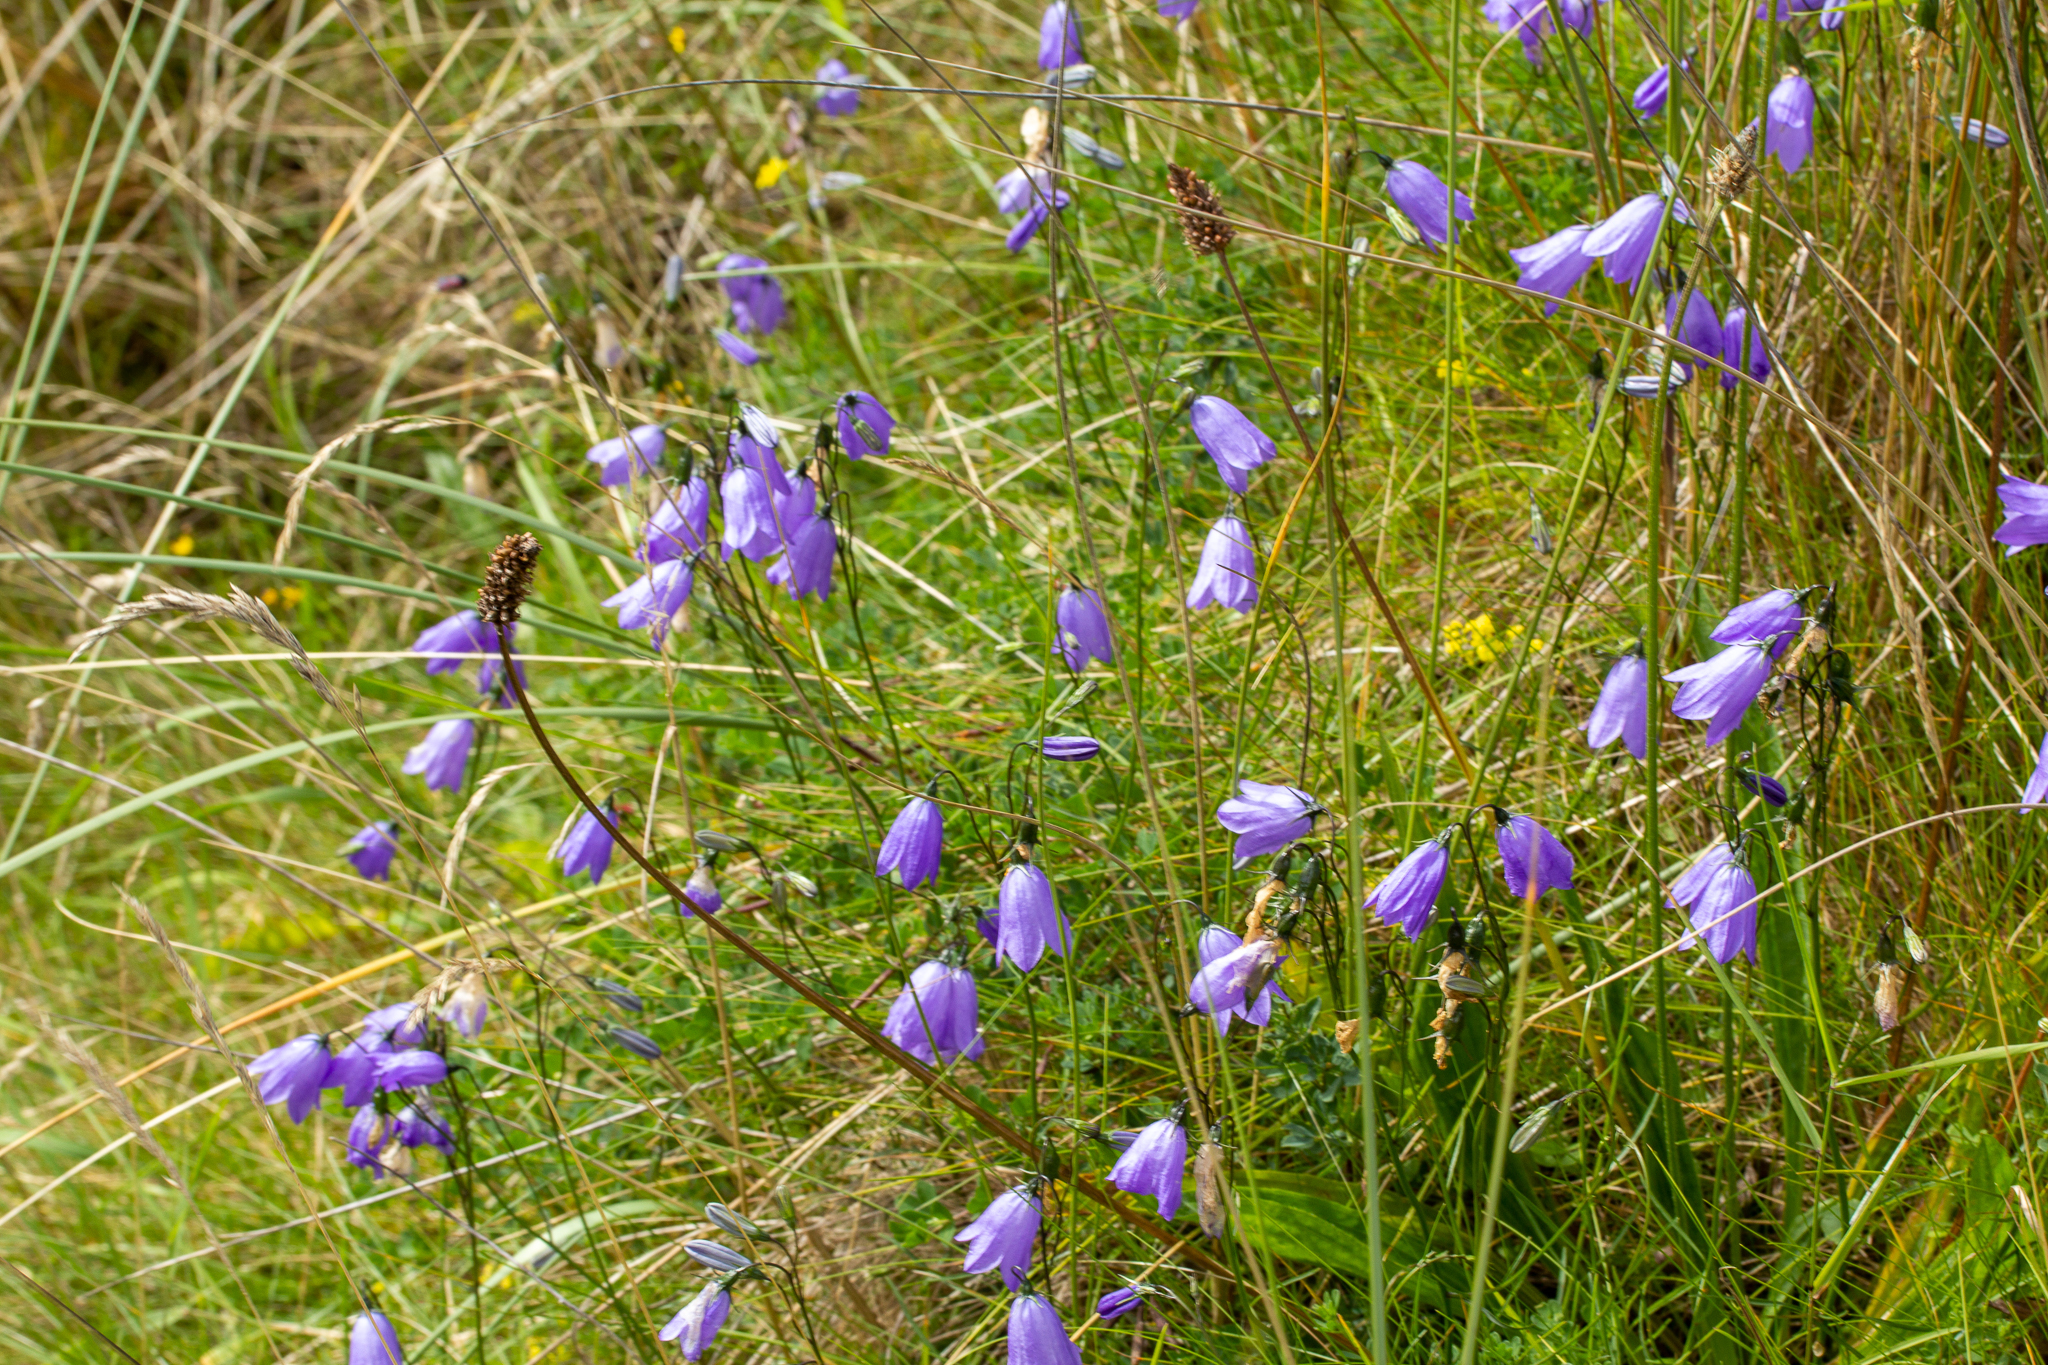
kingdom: Plantae
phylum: Tracheophyta
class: Magnoliopsida
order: Asterales
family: Campanulaceae
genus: Campanula
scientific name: Campanula rotundifolia
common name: Harebell
